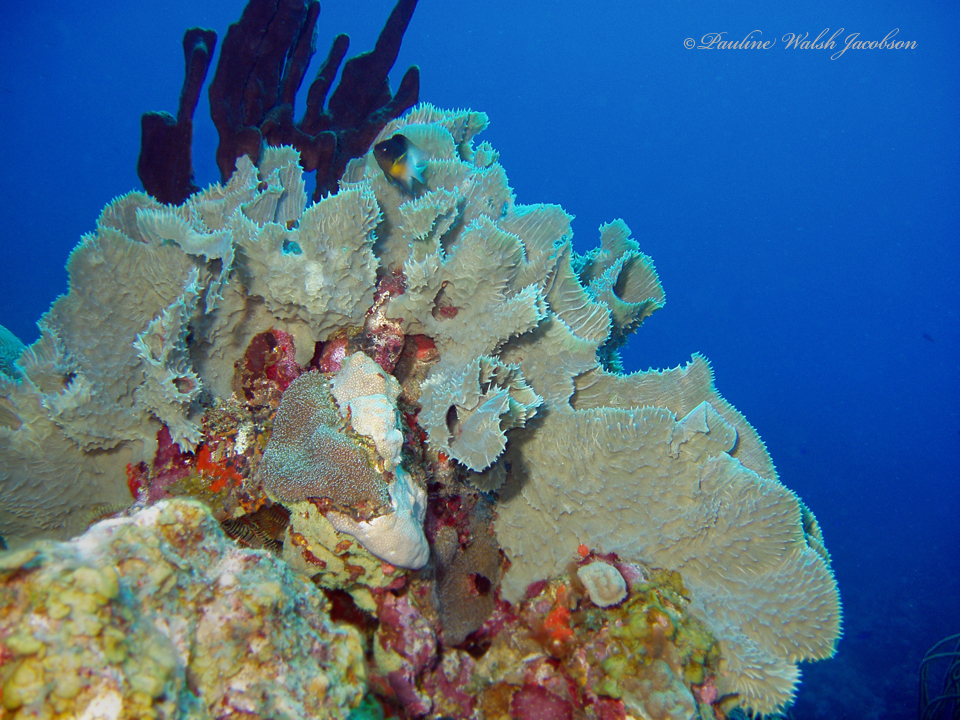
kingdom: Animalia
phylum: Porifera
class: Demospongiae
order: Haplosclerida
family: Callyspongiidae
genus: Callyspongia
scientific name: Callyspongia aculeata
